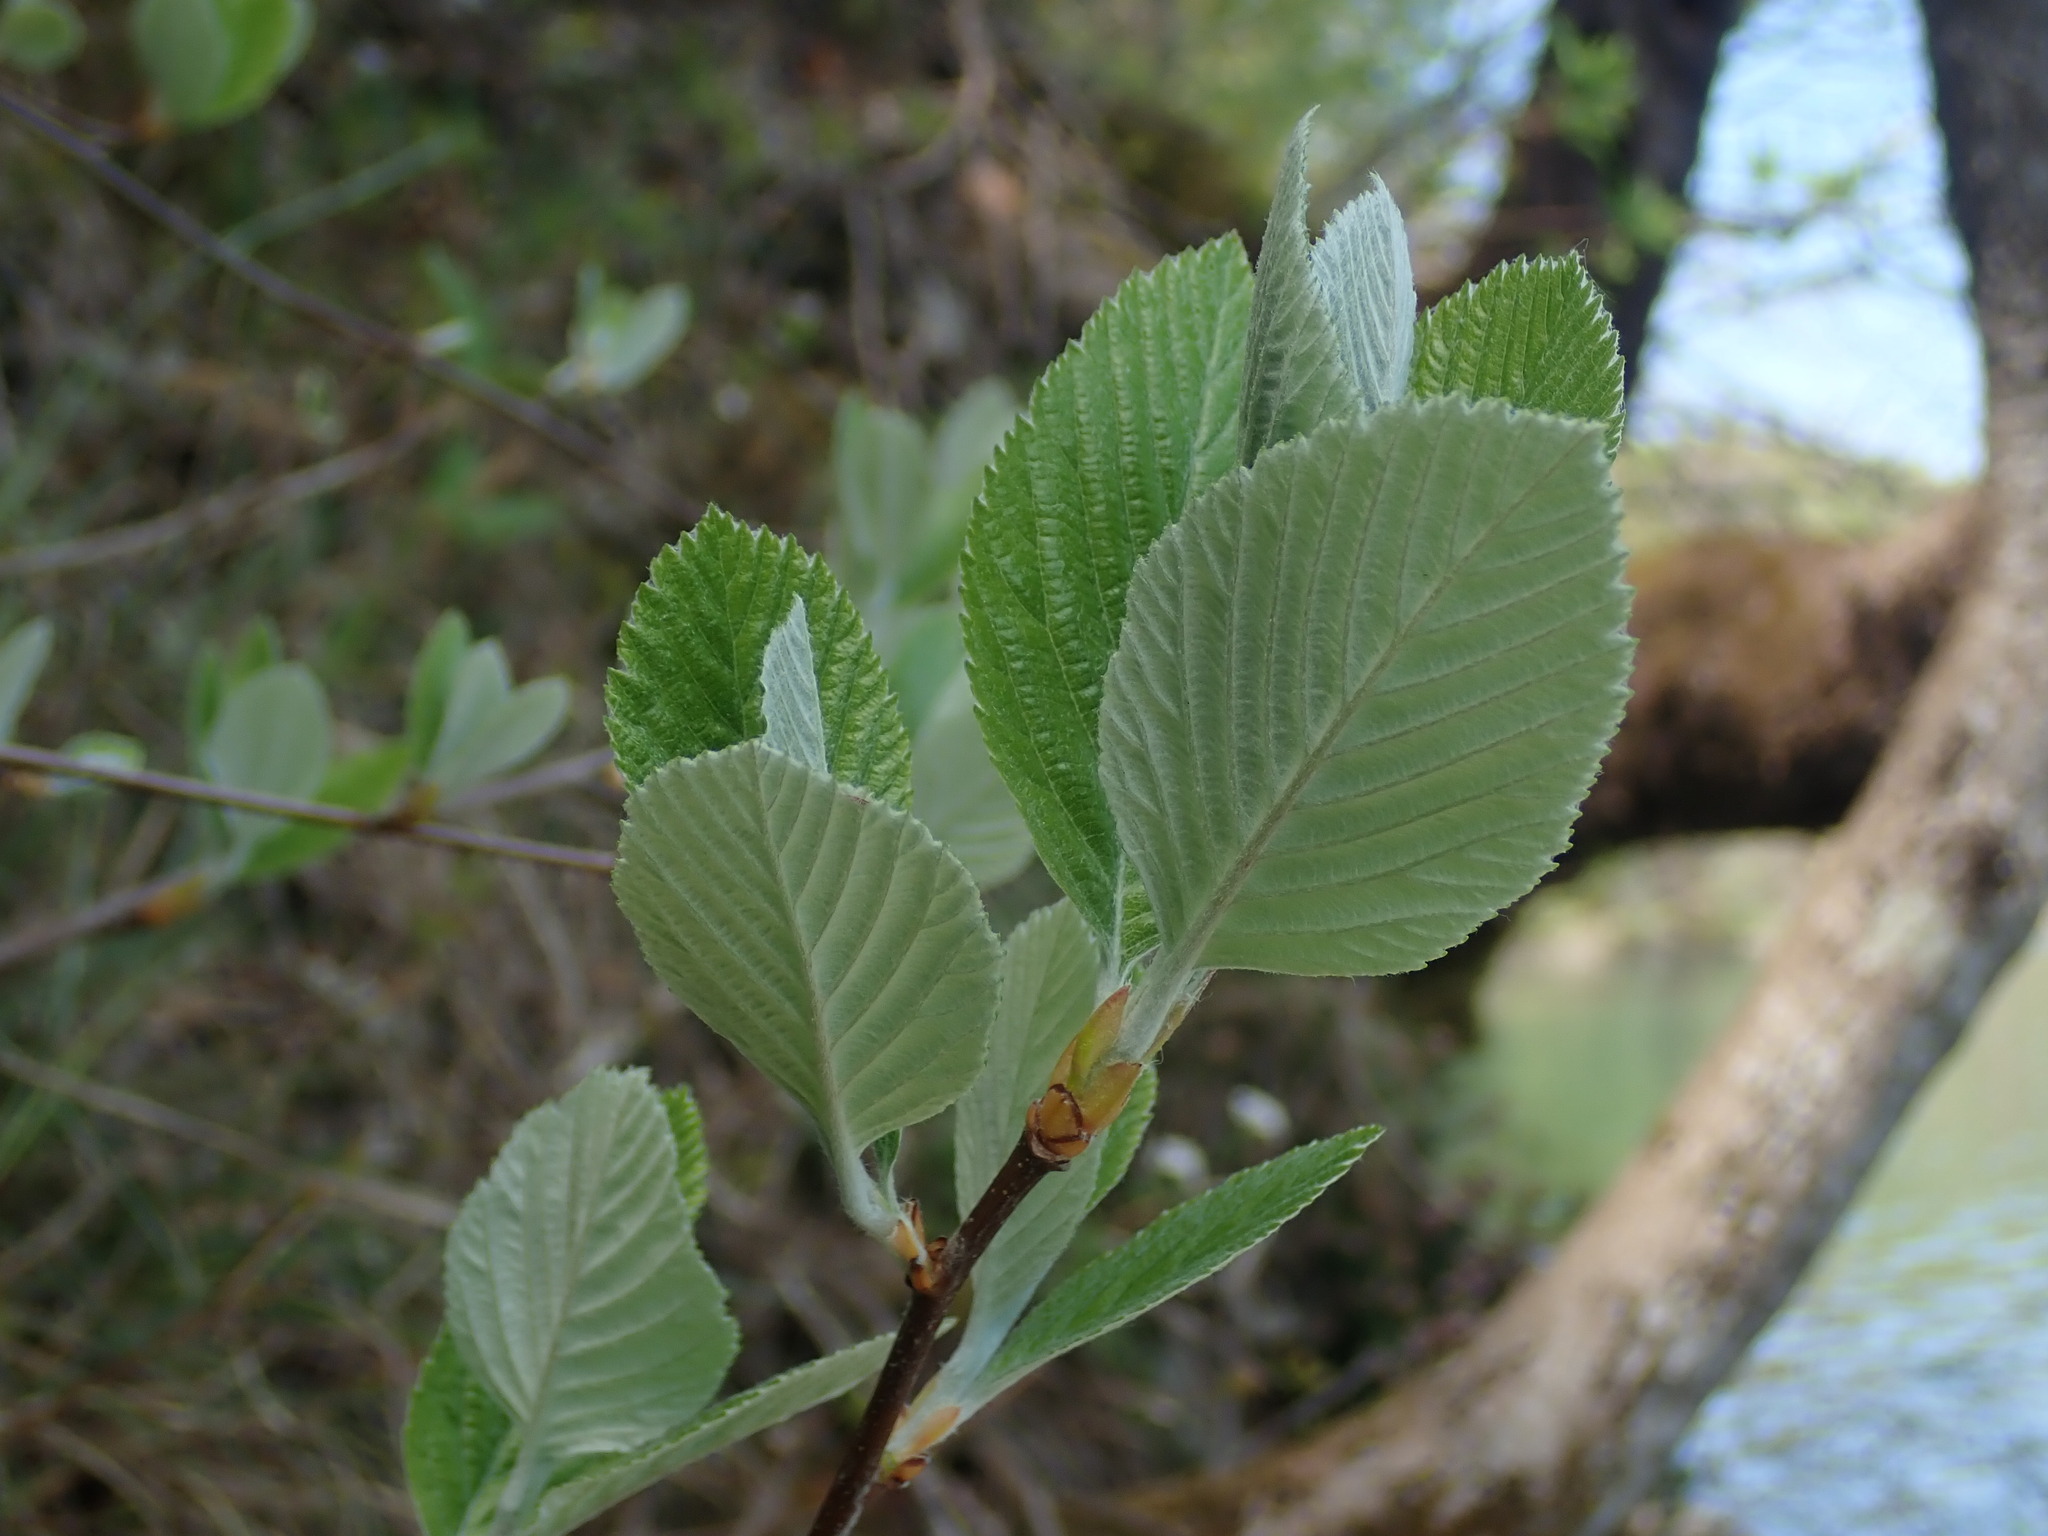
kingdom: Plantae
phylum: Tracheophyta
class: Magnoliopsida
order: Rosales
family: Rosaceae
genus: Aria
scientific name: Aria edulis
